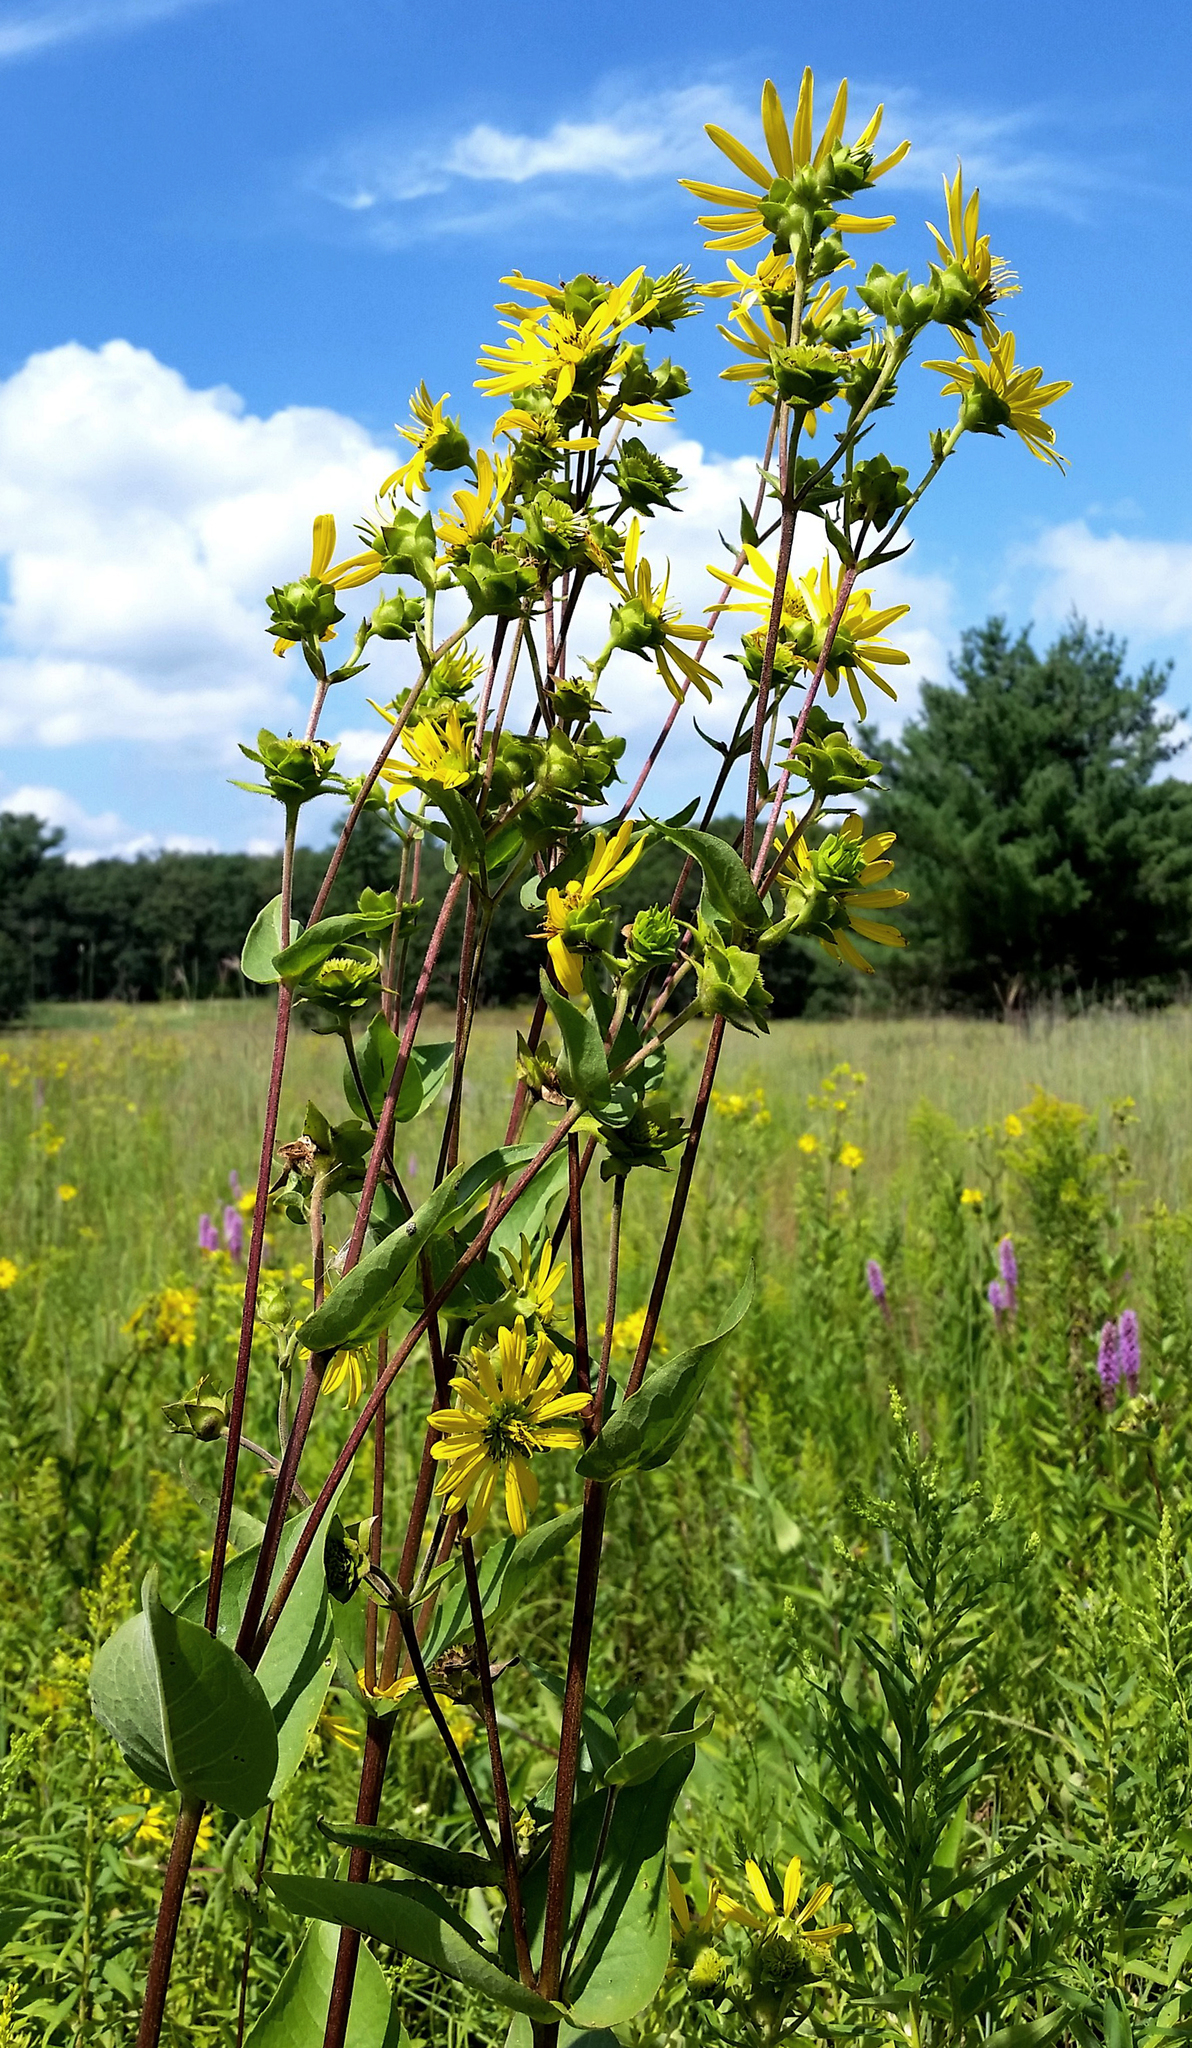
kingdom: Plantae
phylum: Tracheophyta
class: Magnoliopsida
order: Asterales
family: Asteraceae
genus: Silphium
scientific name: Silphium integrifolium
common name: Whole-leaf rosinweed
